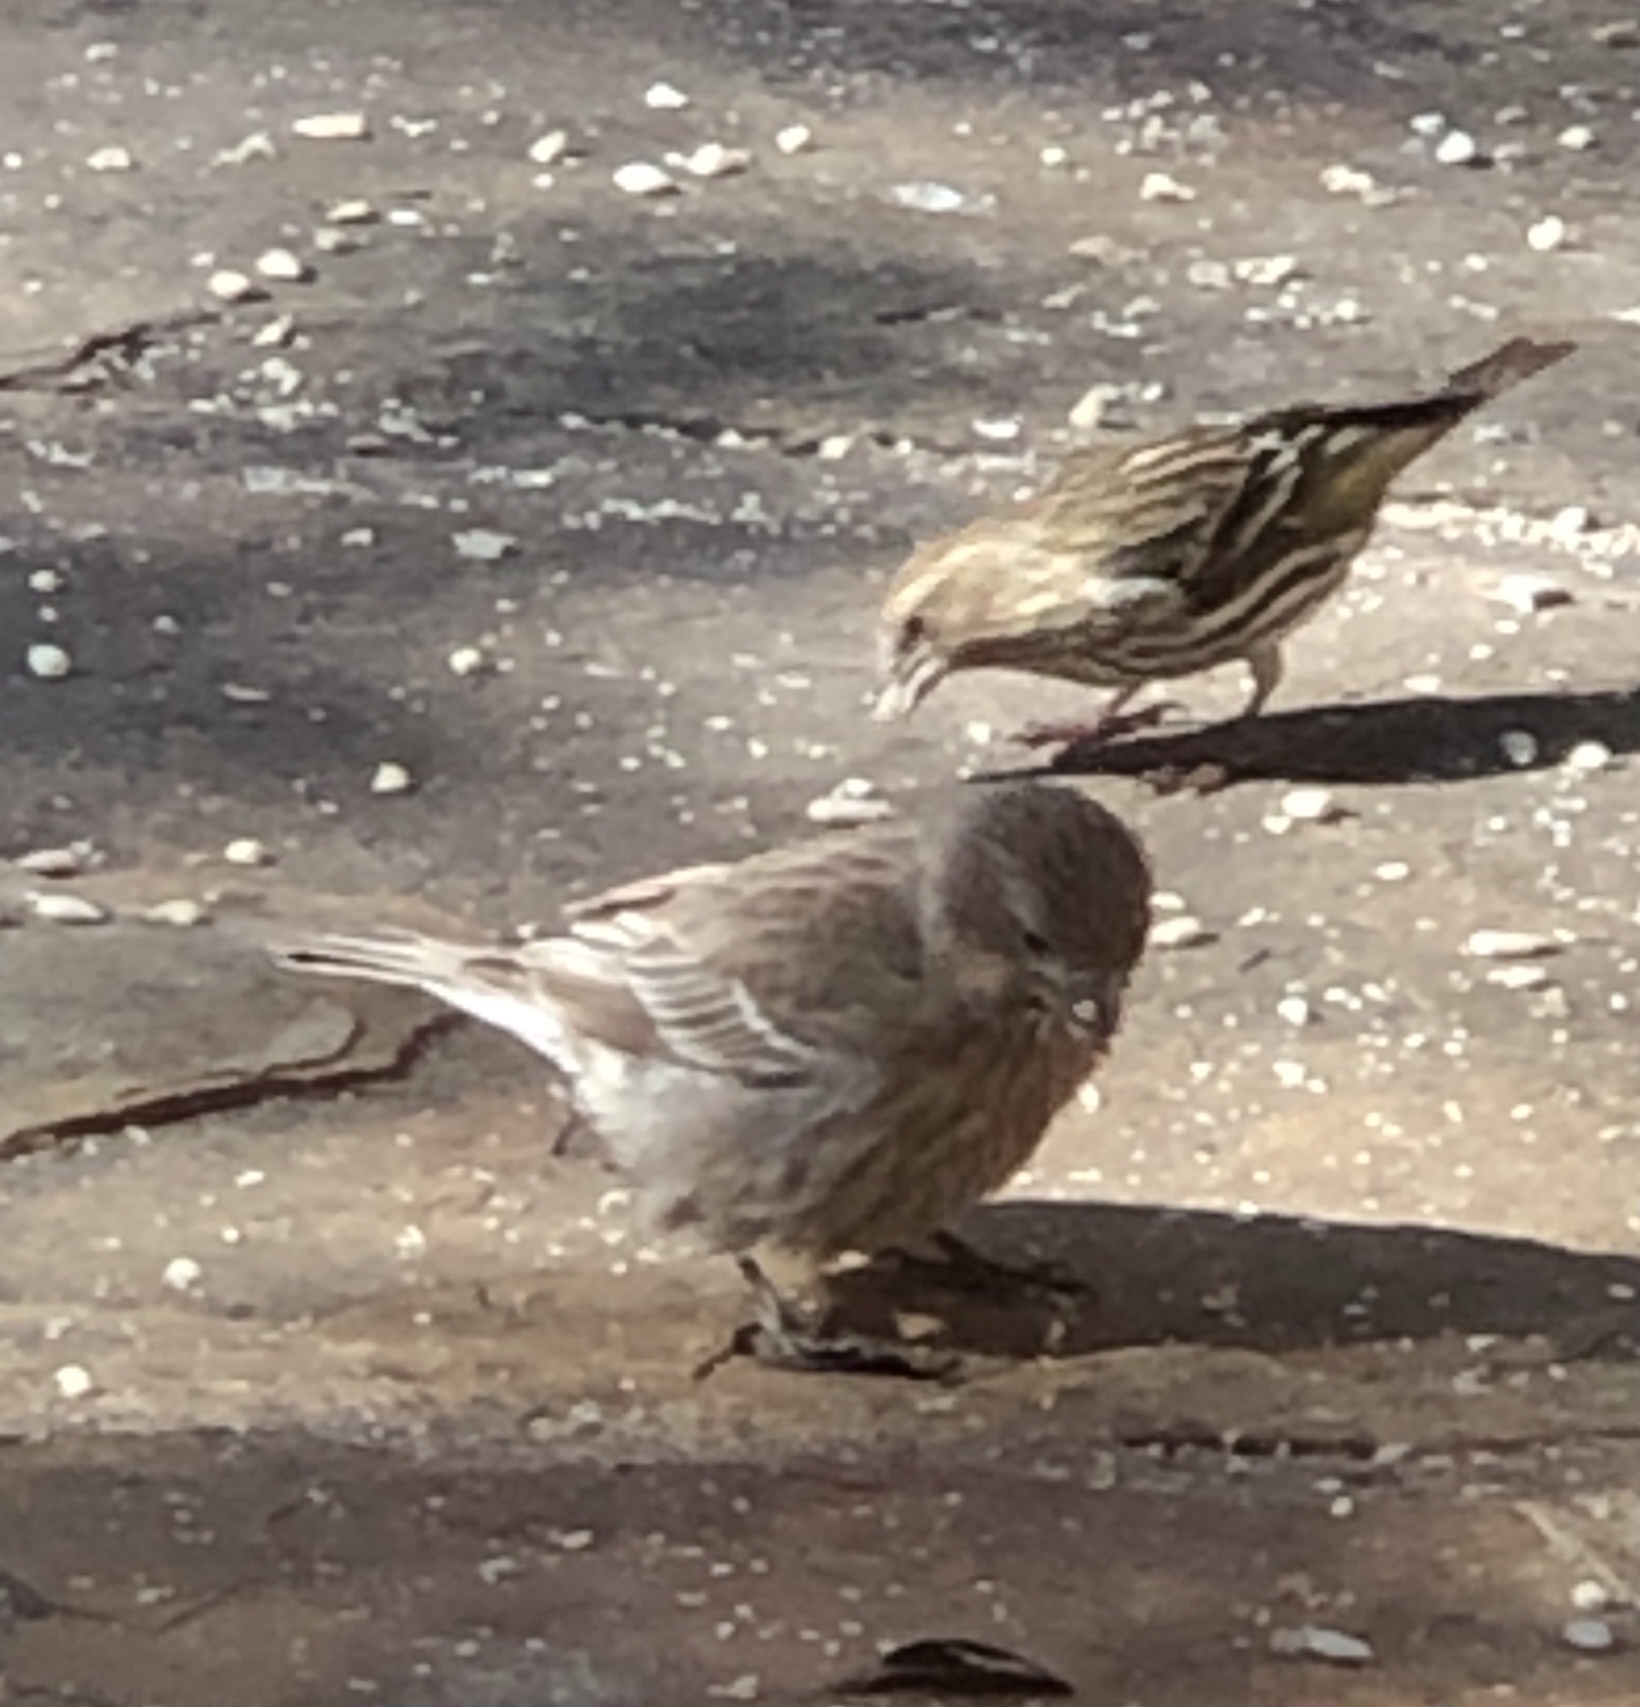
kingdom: Animalia
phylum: Chordata
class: Aves
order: Passeriformes
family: Fringillidae
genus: Haemorhous
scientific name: Haemorhous mexicanus
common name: House finch
